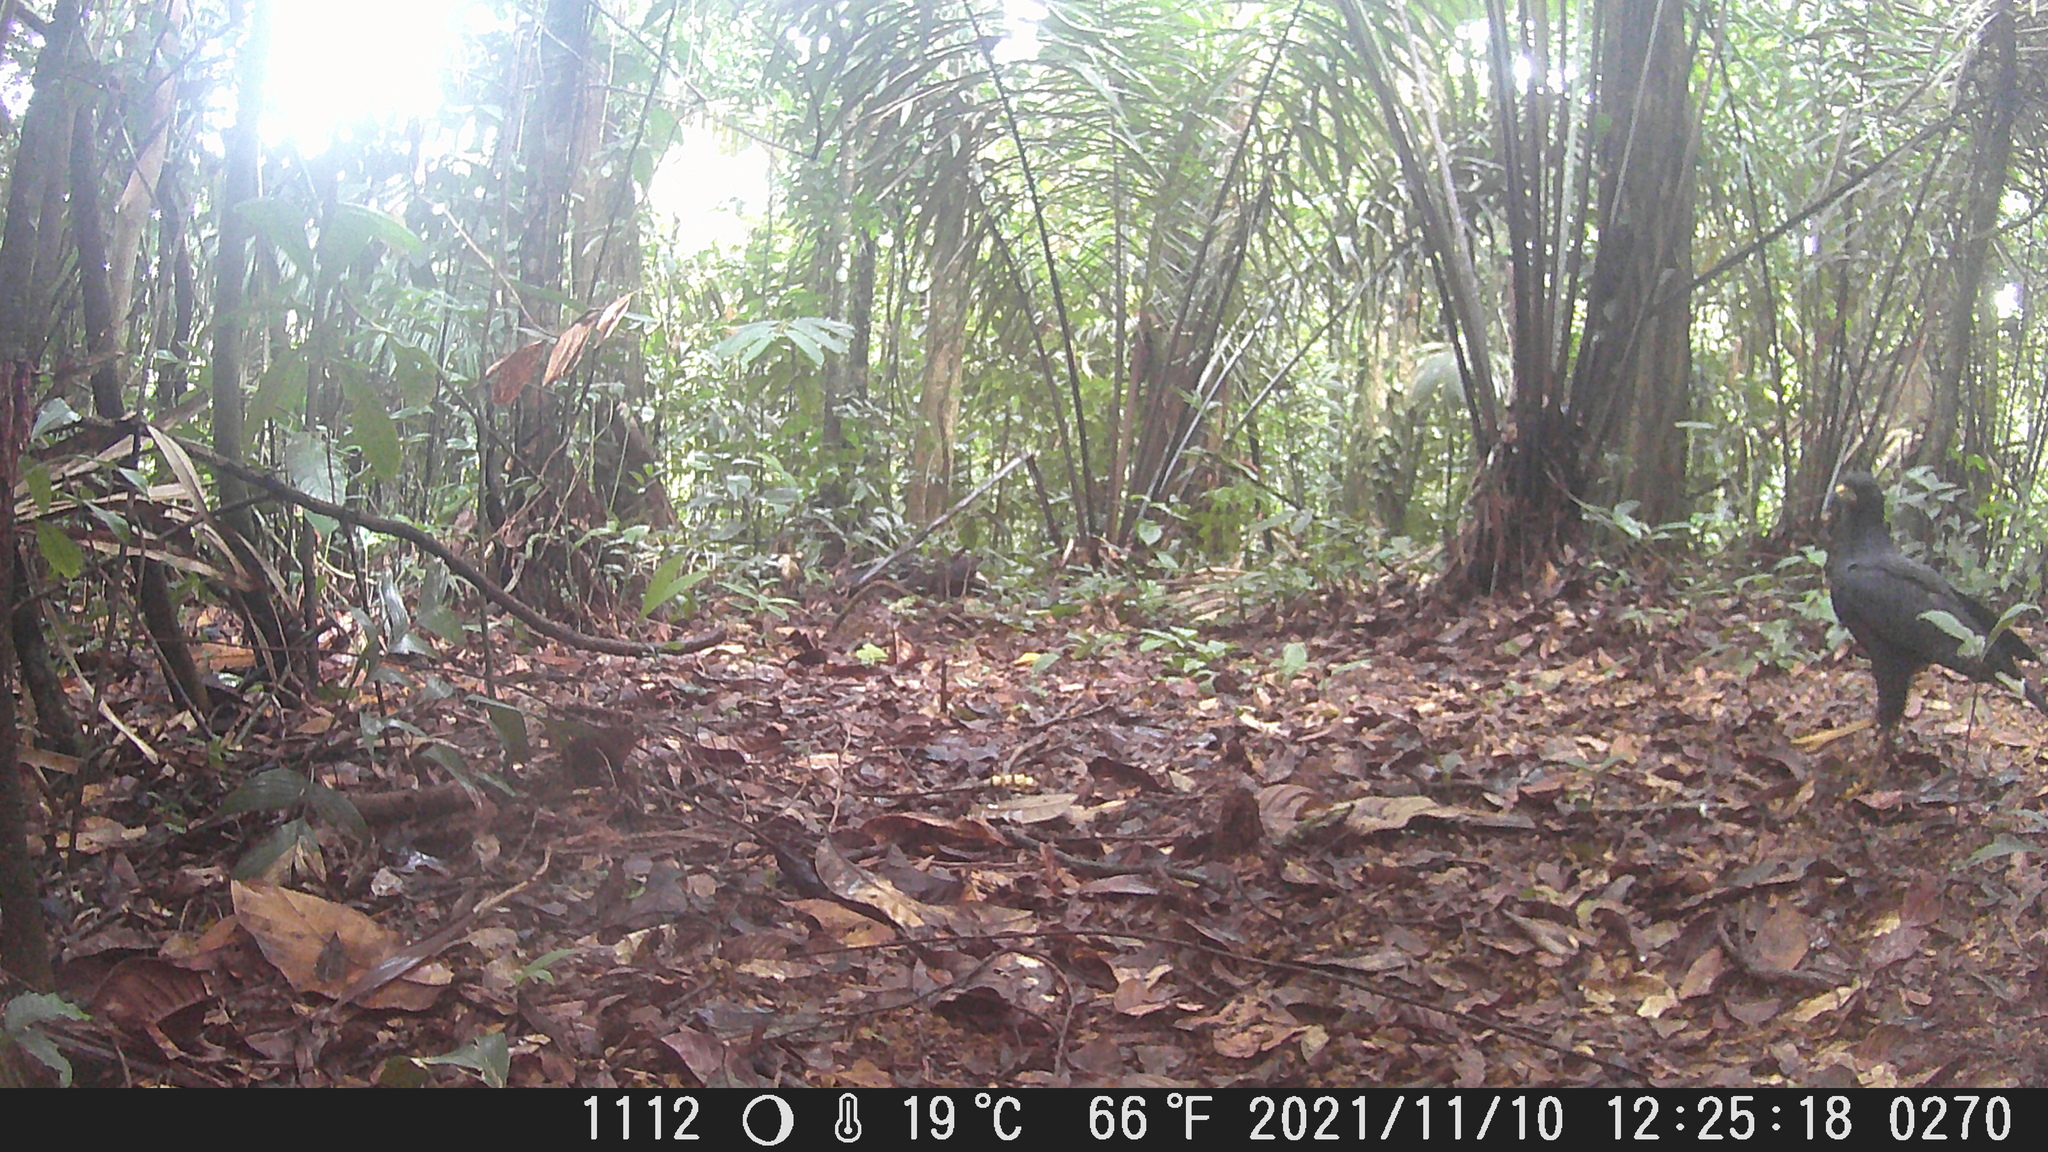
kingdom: Animalia
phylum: Chordata
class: Aves
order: Accipitriformes
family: Accipitridae
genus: Buteogallus
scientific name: Buteogallus urubitinga
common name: Great black hawk
